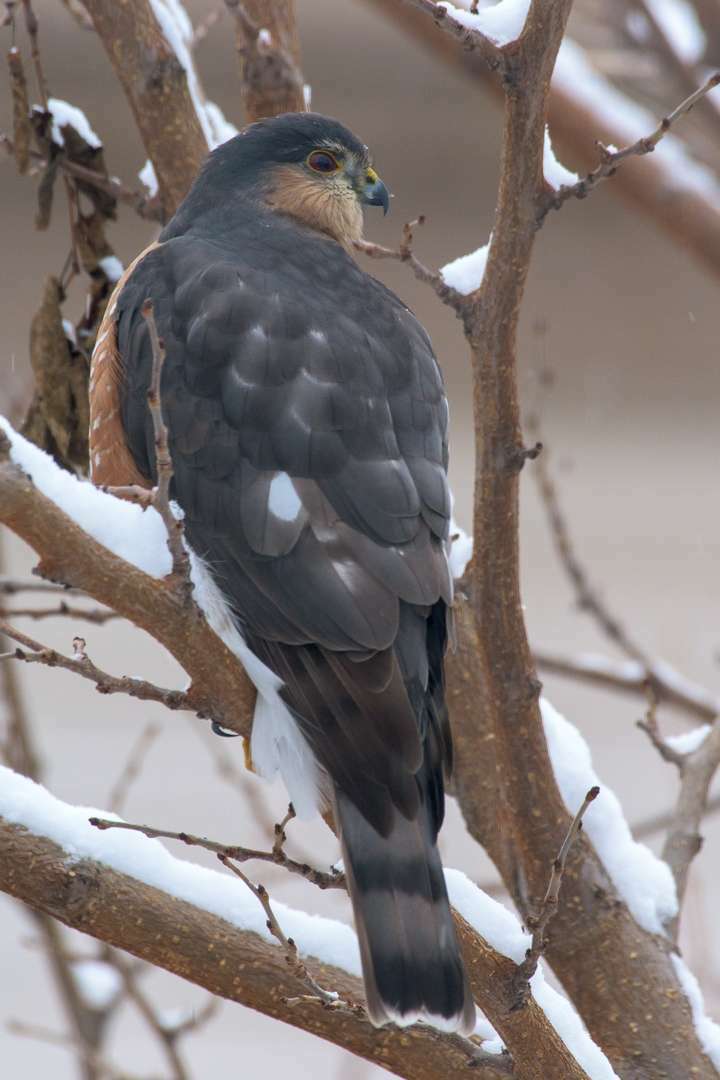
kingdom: Animalia
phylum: Chordata
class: Aves
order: Accipitriformes
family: Accipitridae
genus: Accipiter
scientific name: Accipiter striatus
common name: Sharp-shinned hawk
